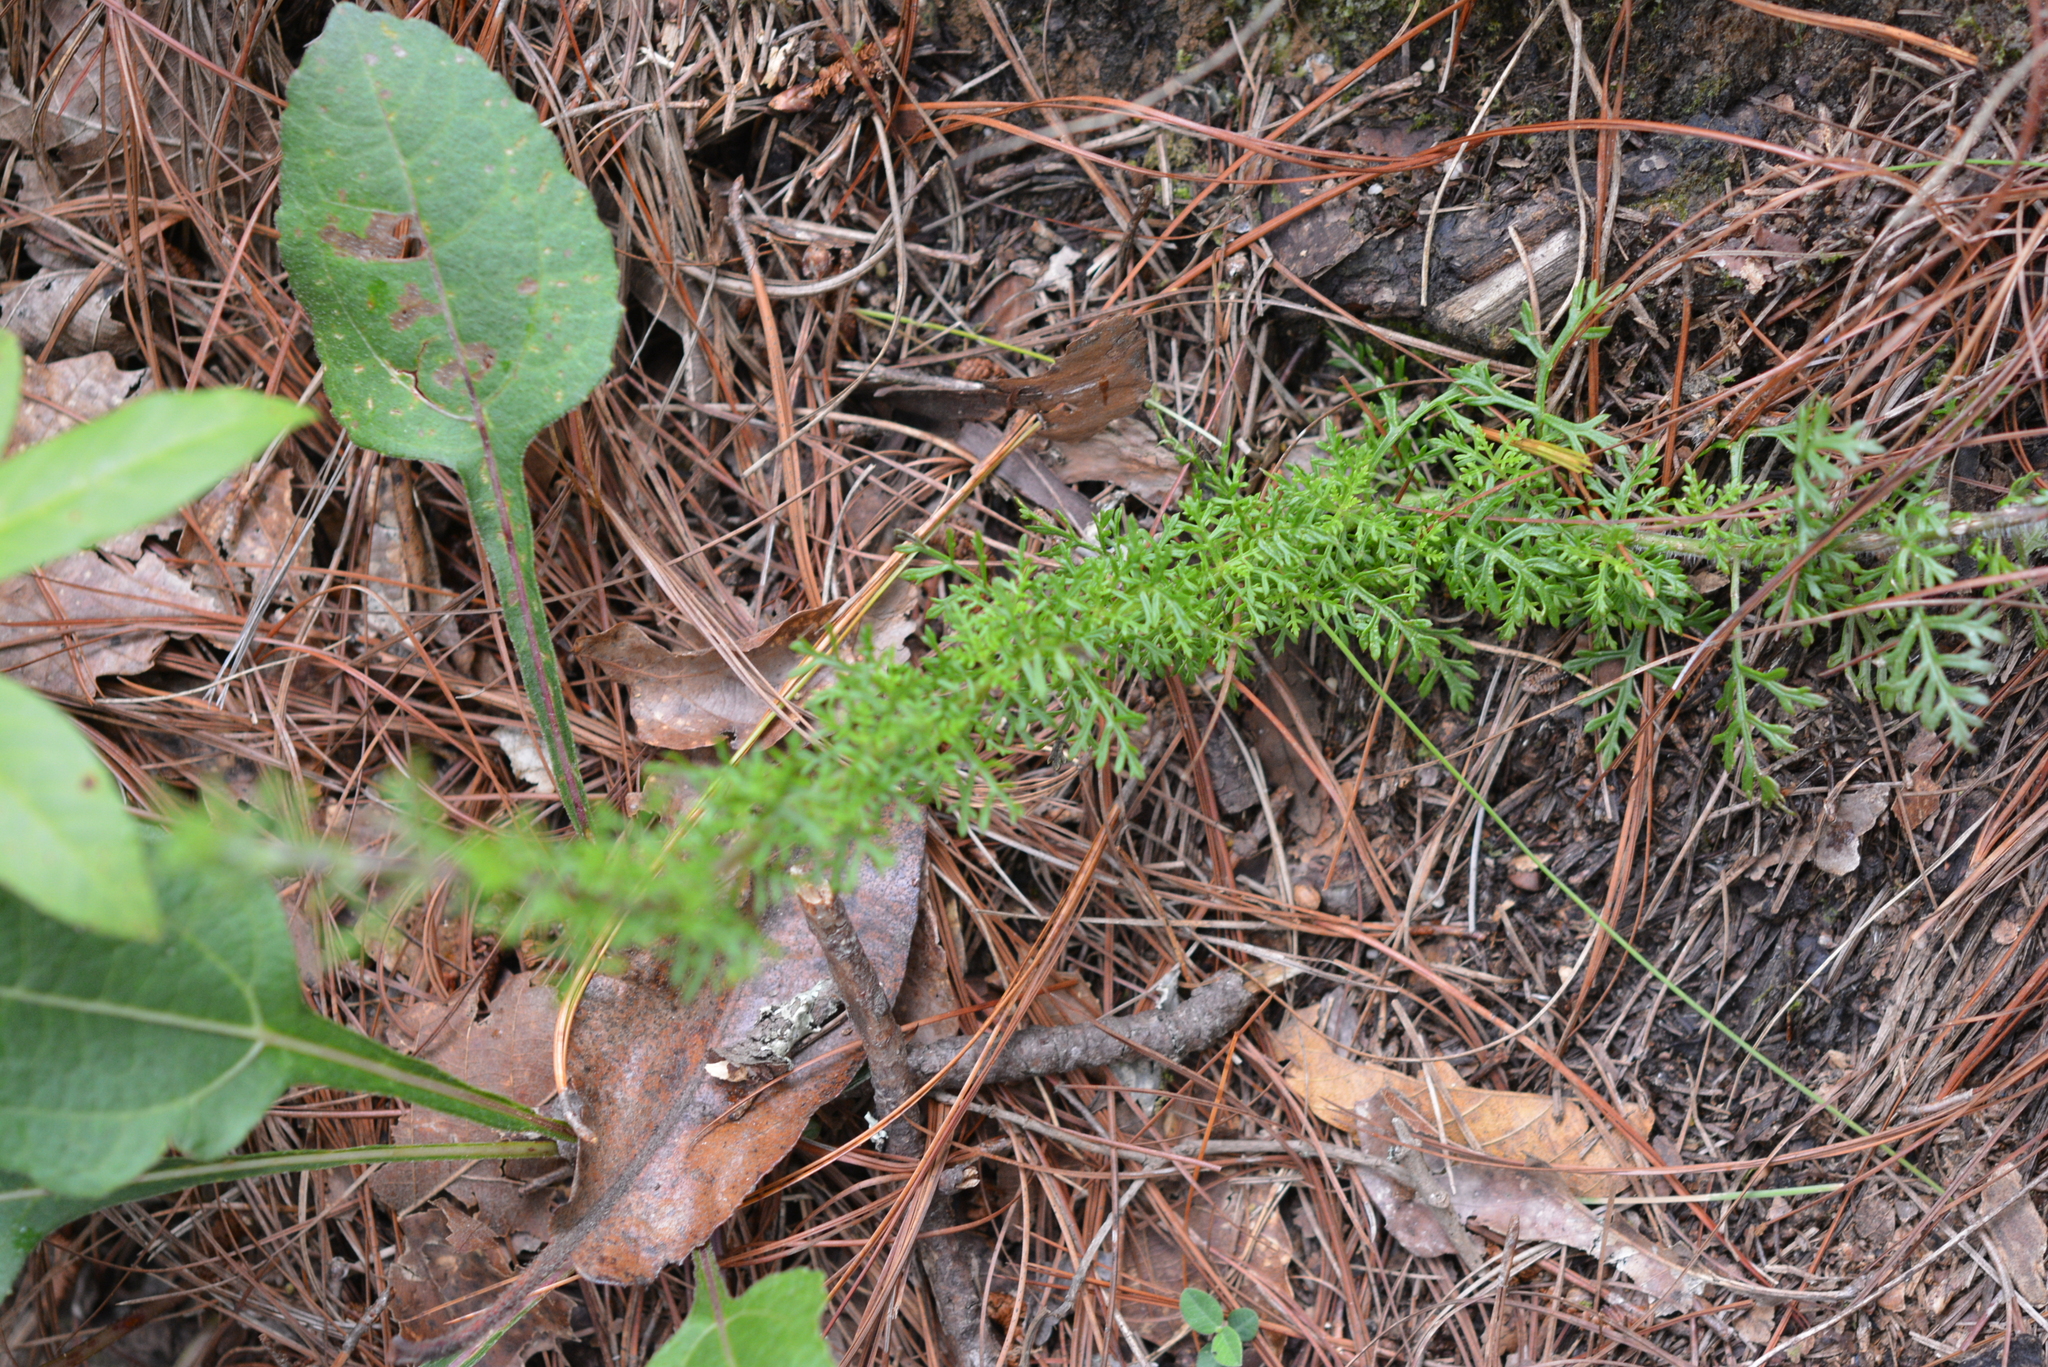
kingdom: Plantae
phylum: Tracheophyta
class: Magnoliopsida
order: Lamiales
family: Orobanchaceae
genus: Lamourouxia
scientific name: Lamourouxia multifida
